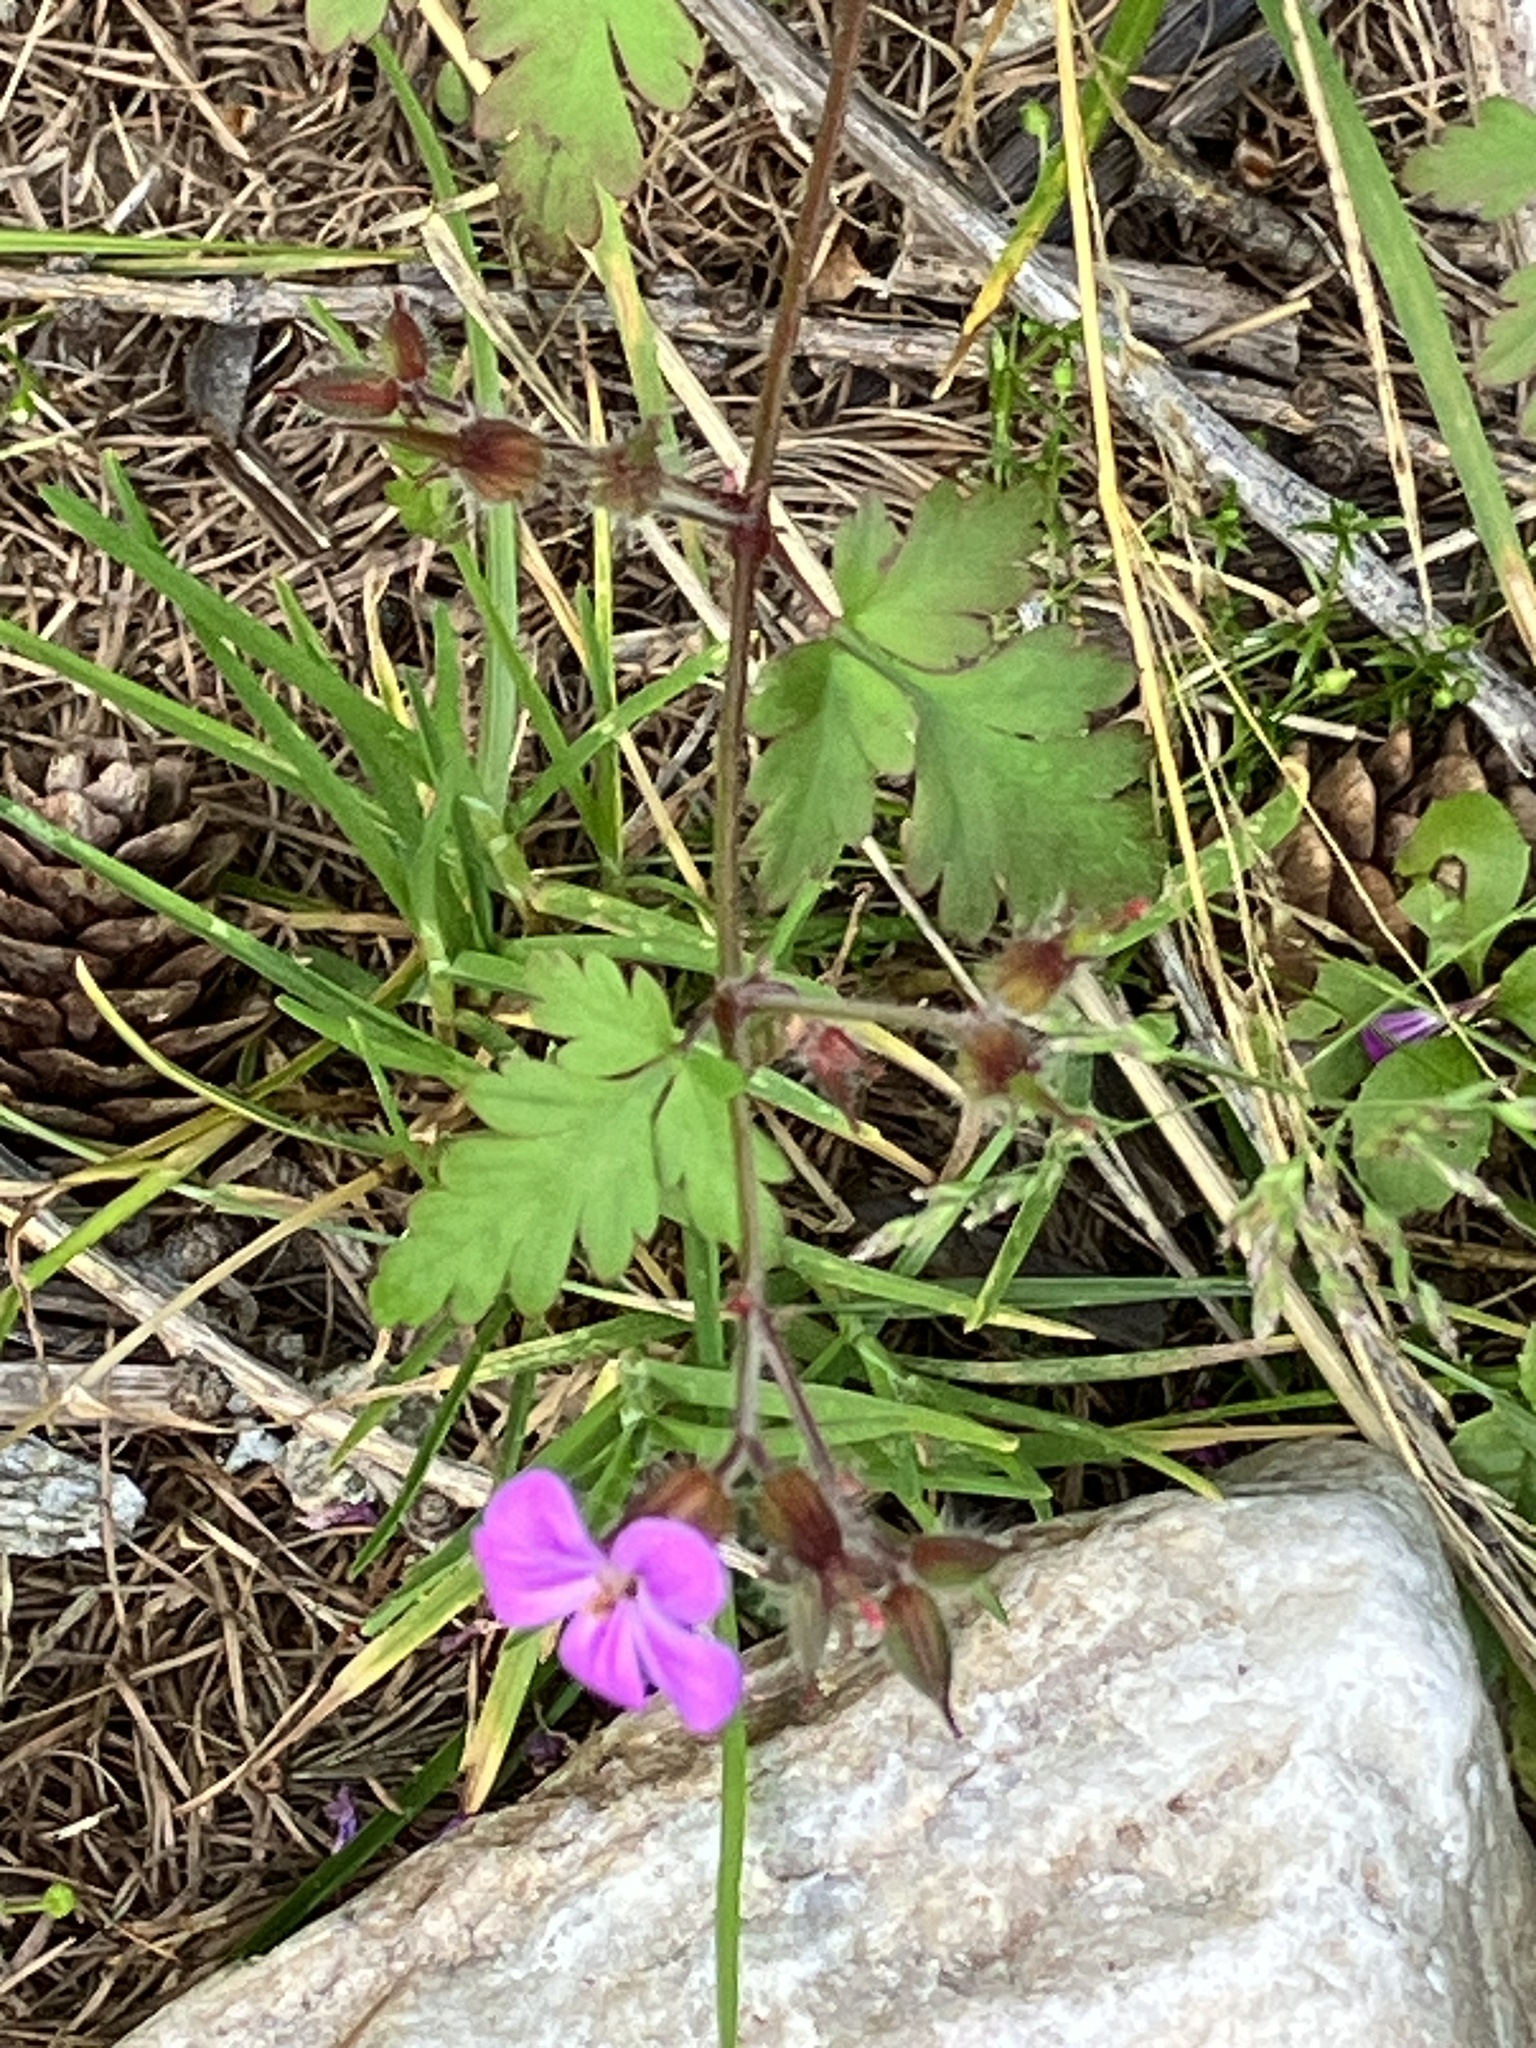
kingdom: Plantae
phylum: Tracheophyta
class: Magnoliopsida
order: Geraniales
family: Geraniaceae
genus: Geranium
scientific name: Geranium robertianum
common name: Herb-robert
